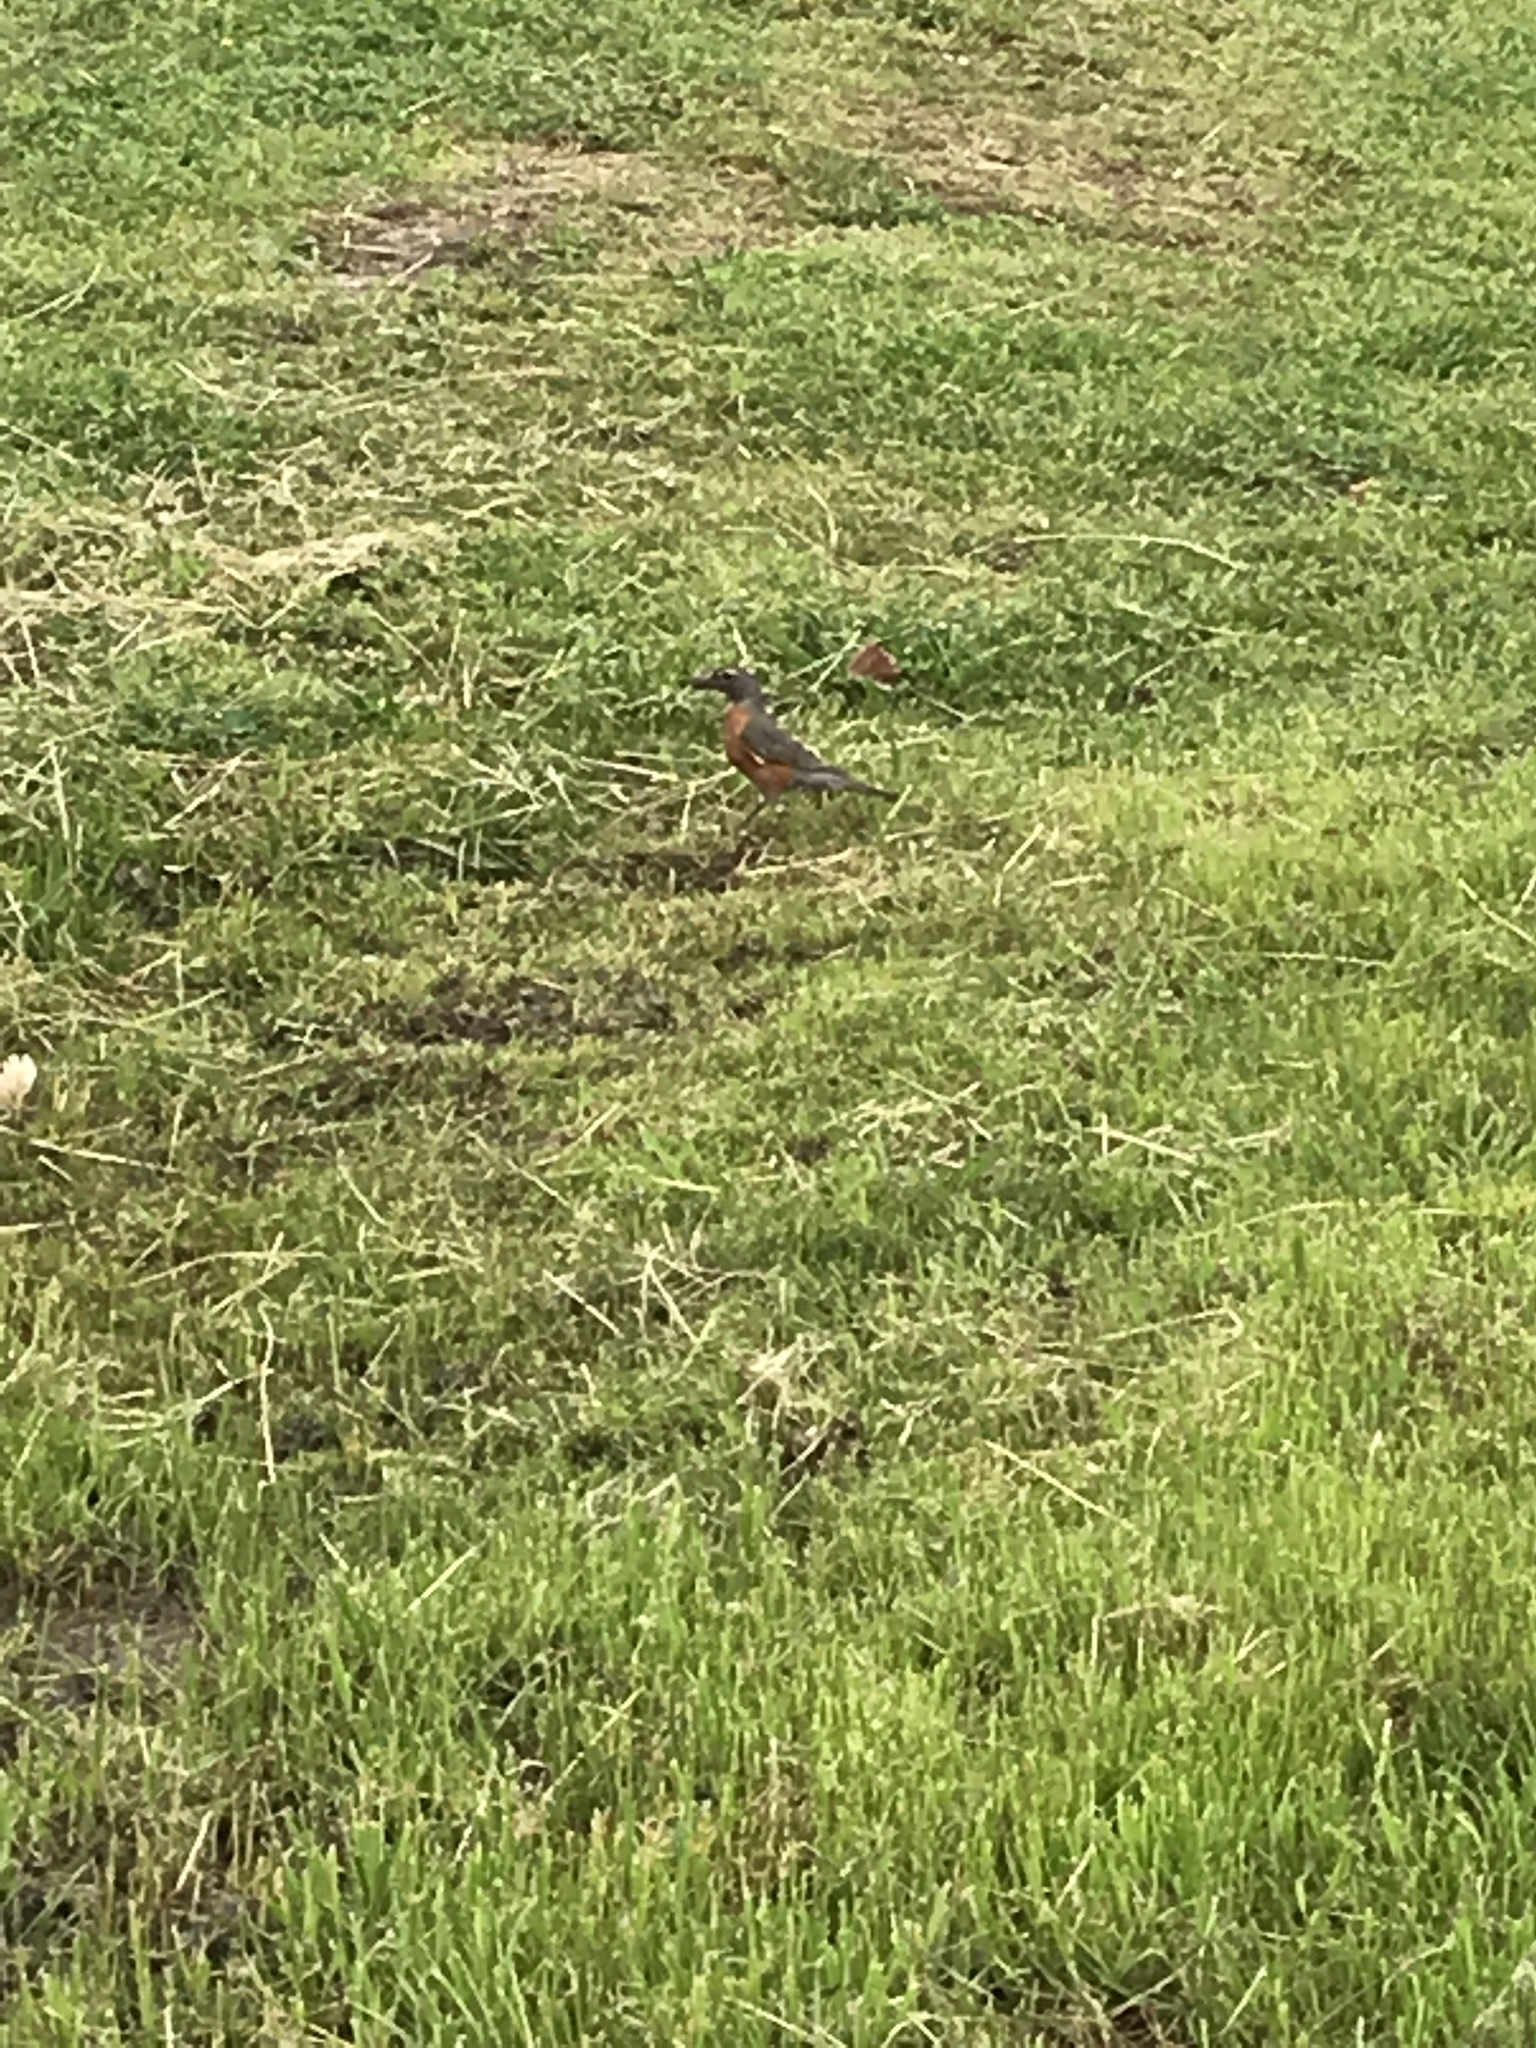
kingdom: Animalia
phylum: Chordata
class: Aves
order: Passeriformes
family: Turdidae
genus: Turdus
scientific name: Turdus migratorius
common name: American robin
